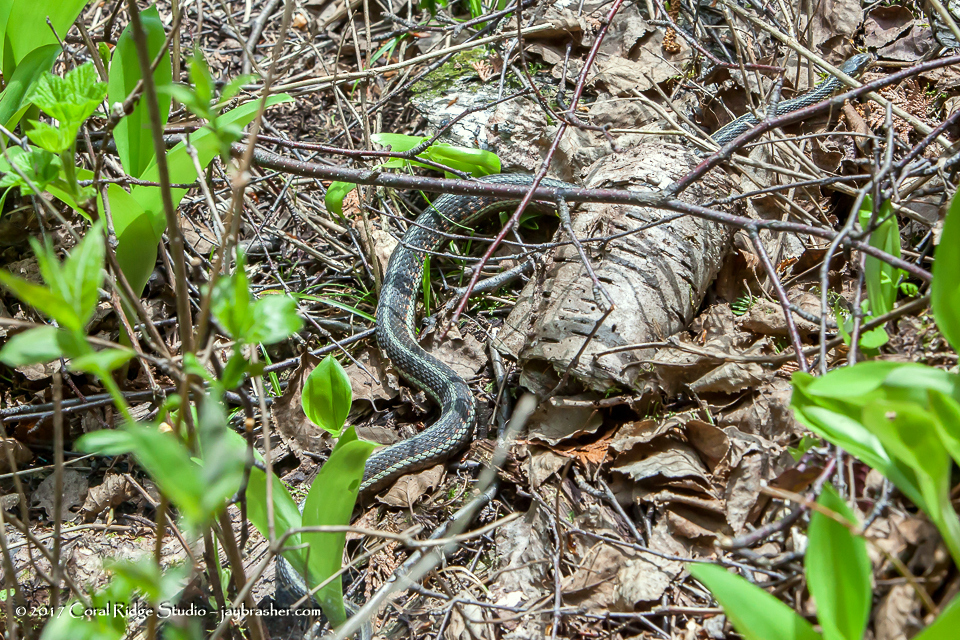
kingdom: Animalia
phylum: Chordata
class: Squamata
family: Colubridae
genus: Thamnophis
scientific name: Thamnophis sirtalis
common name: Common garter snake
